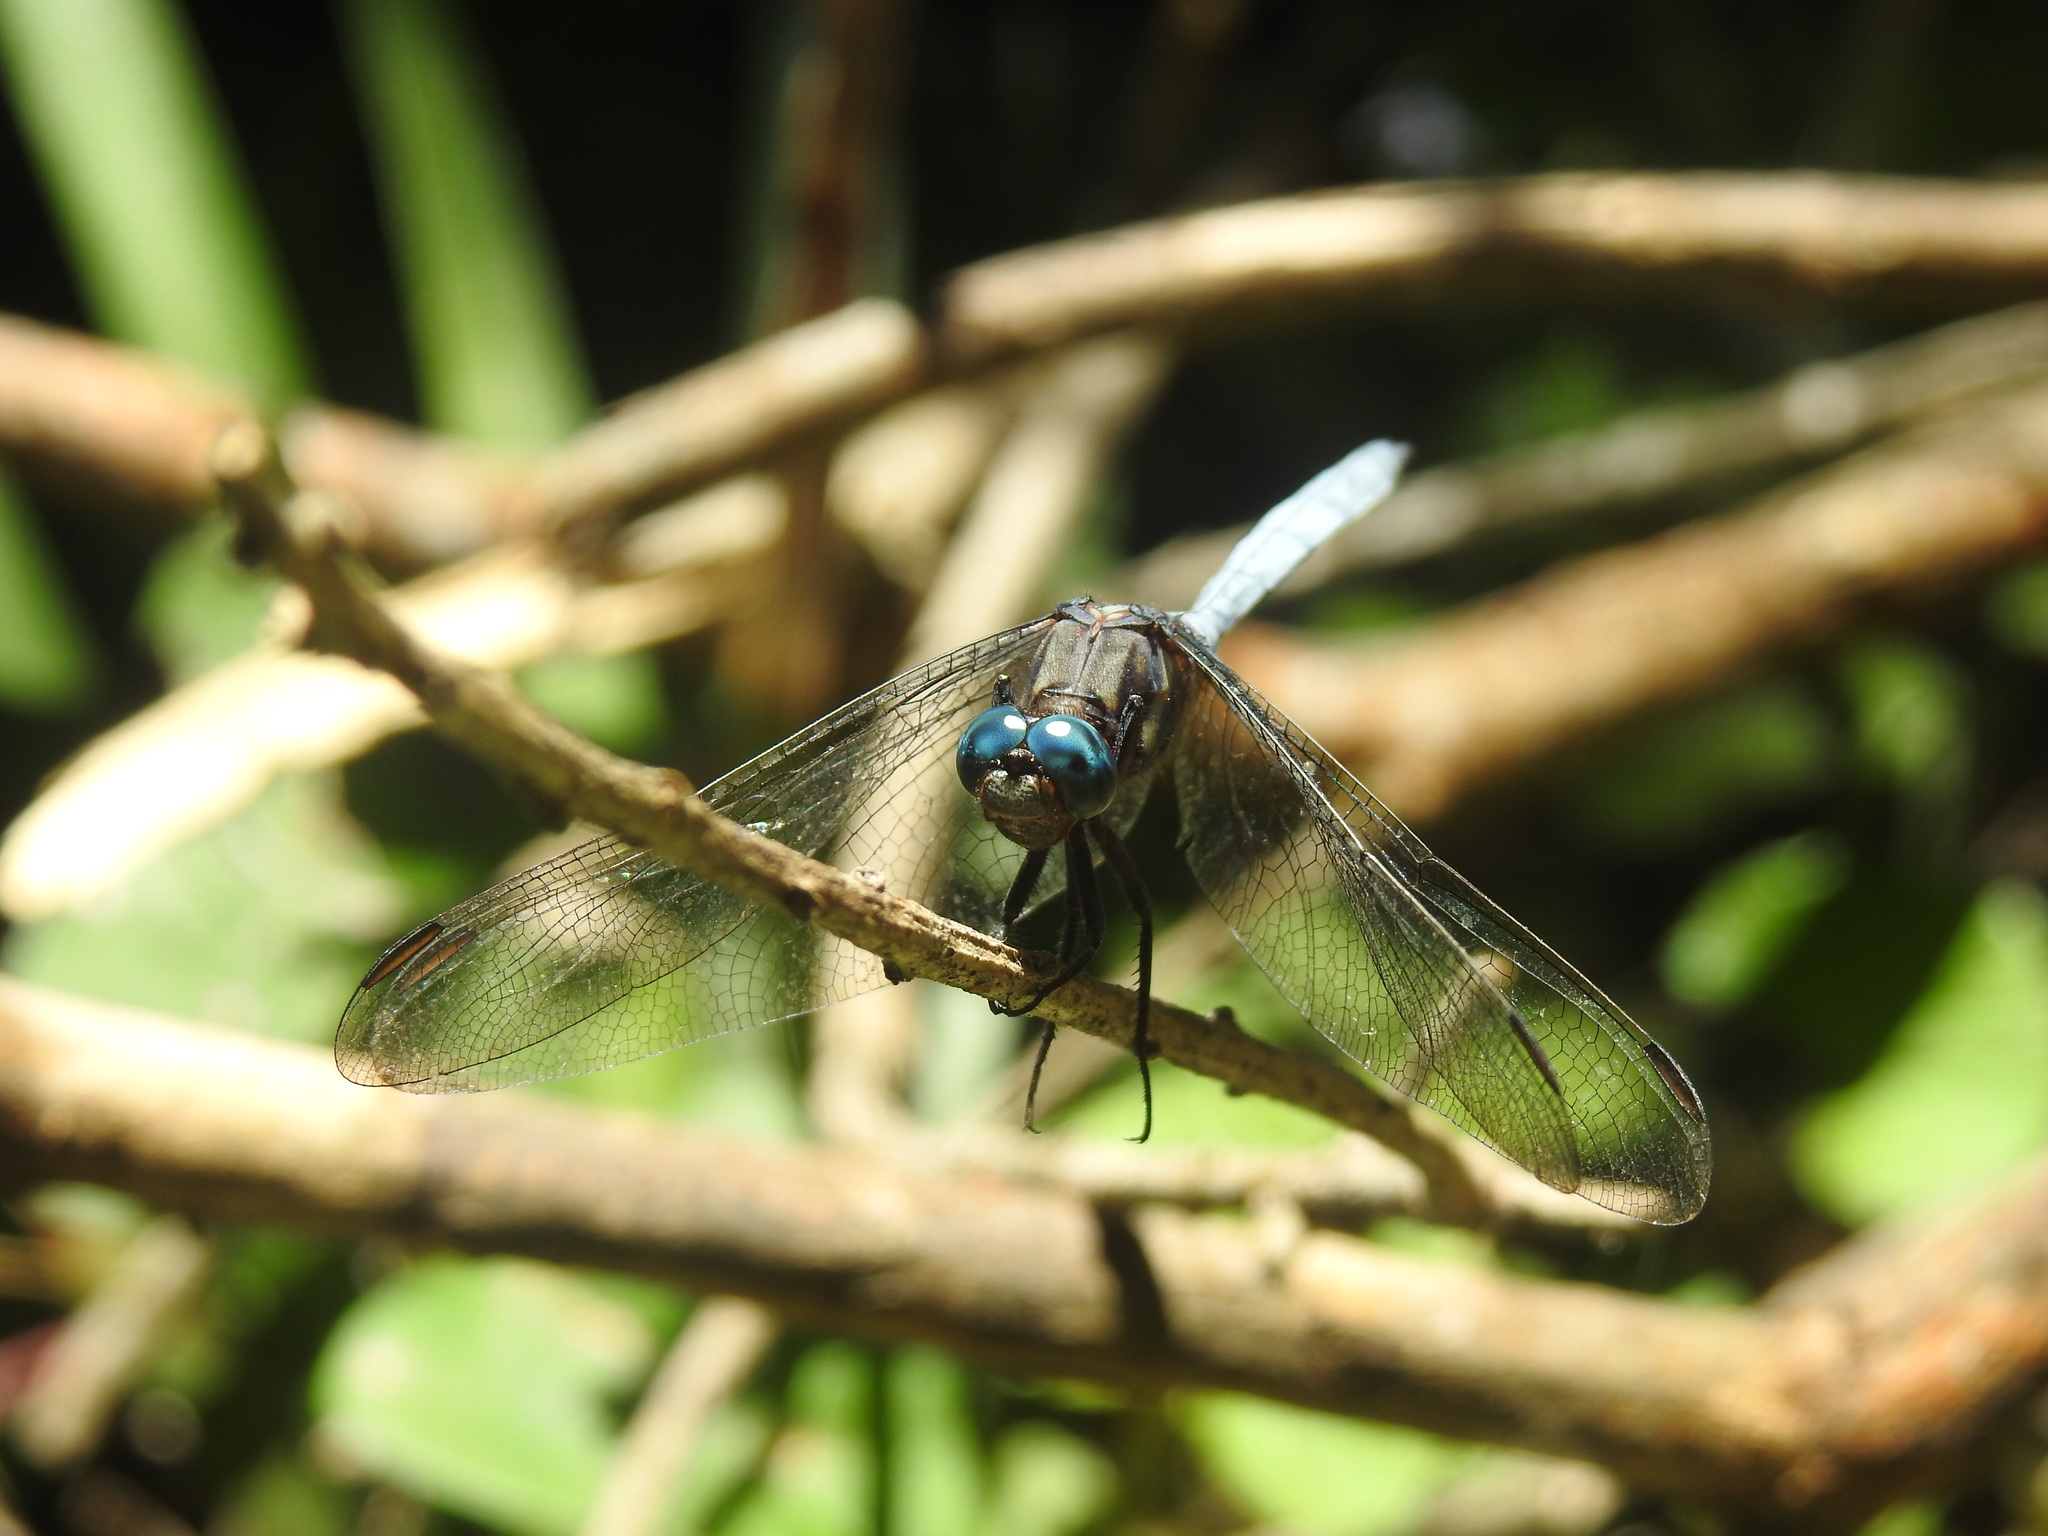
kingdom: Animalia
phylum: Arthropoda
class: Insecta
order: Odonata
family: Libellulidae
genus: Orthetrum
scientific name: Orthetrum julia
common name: Julia skimmer
